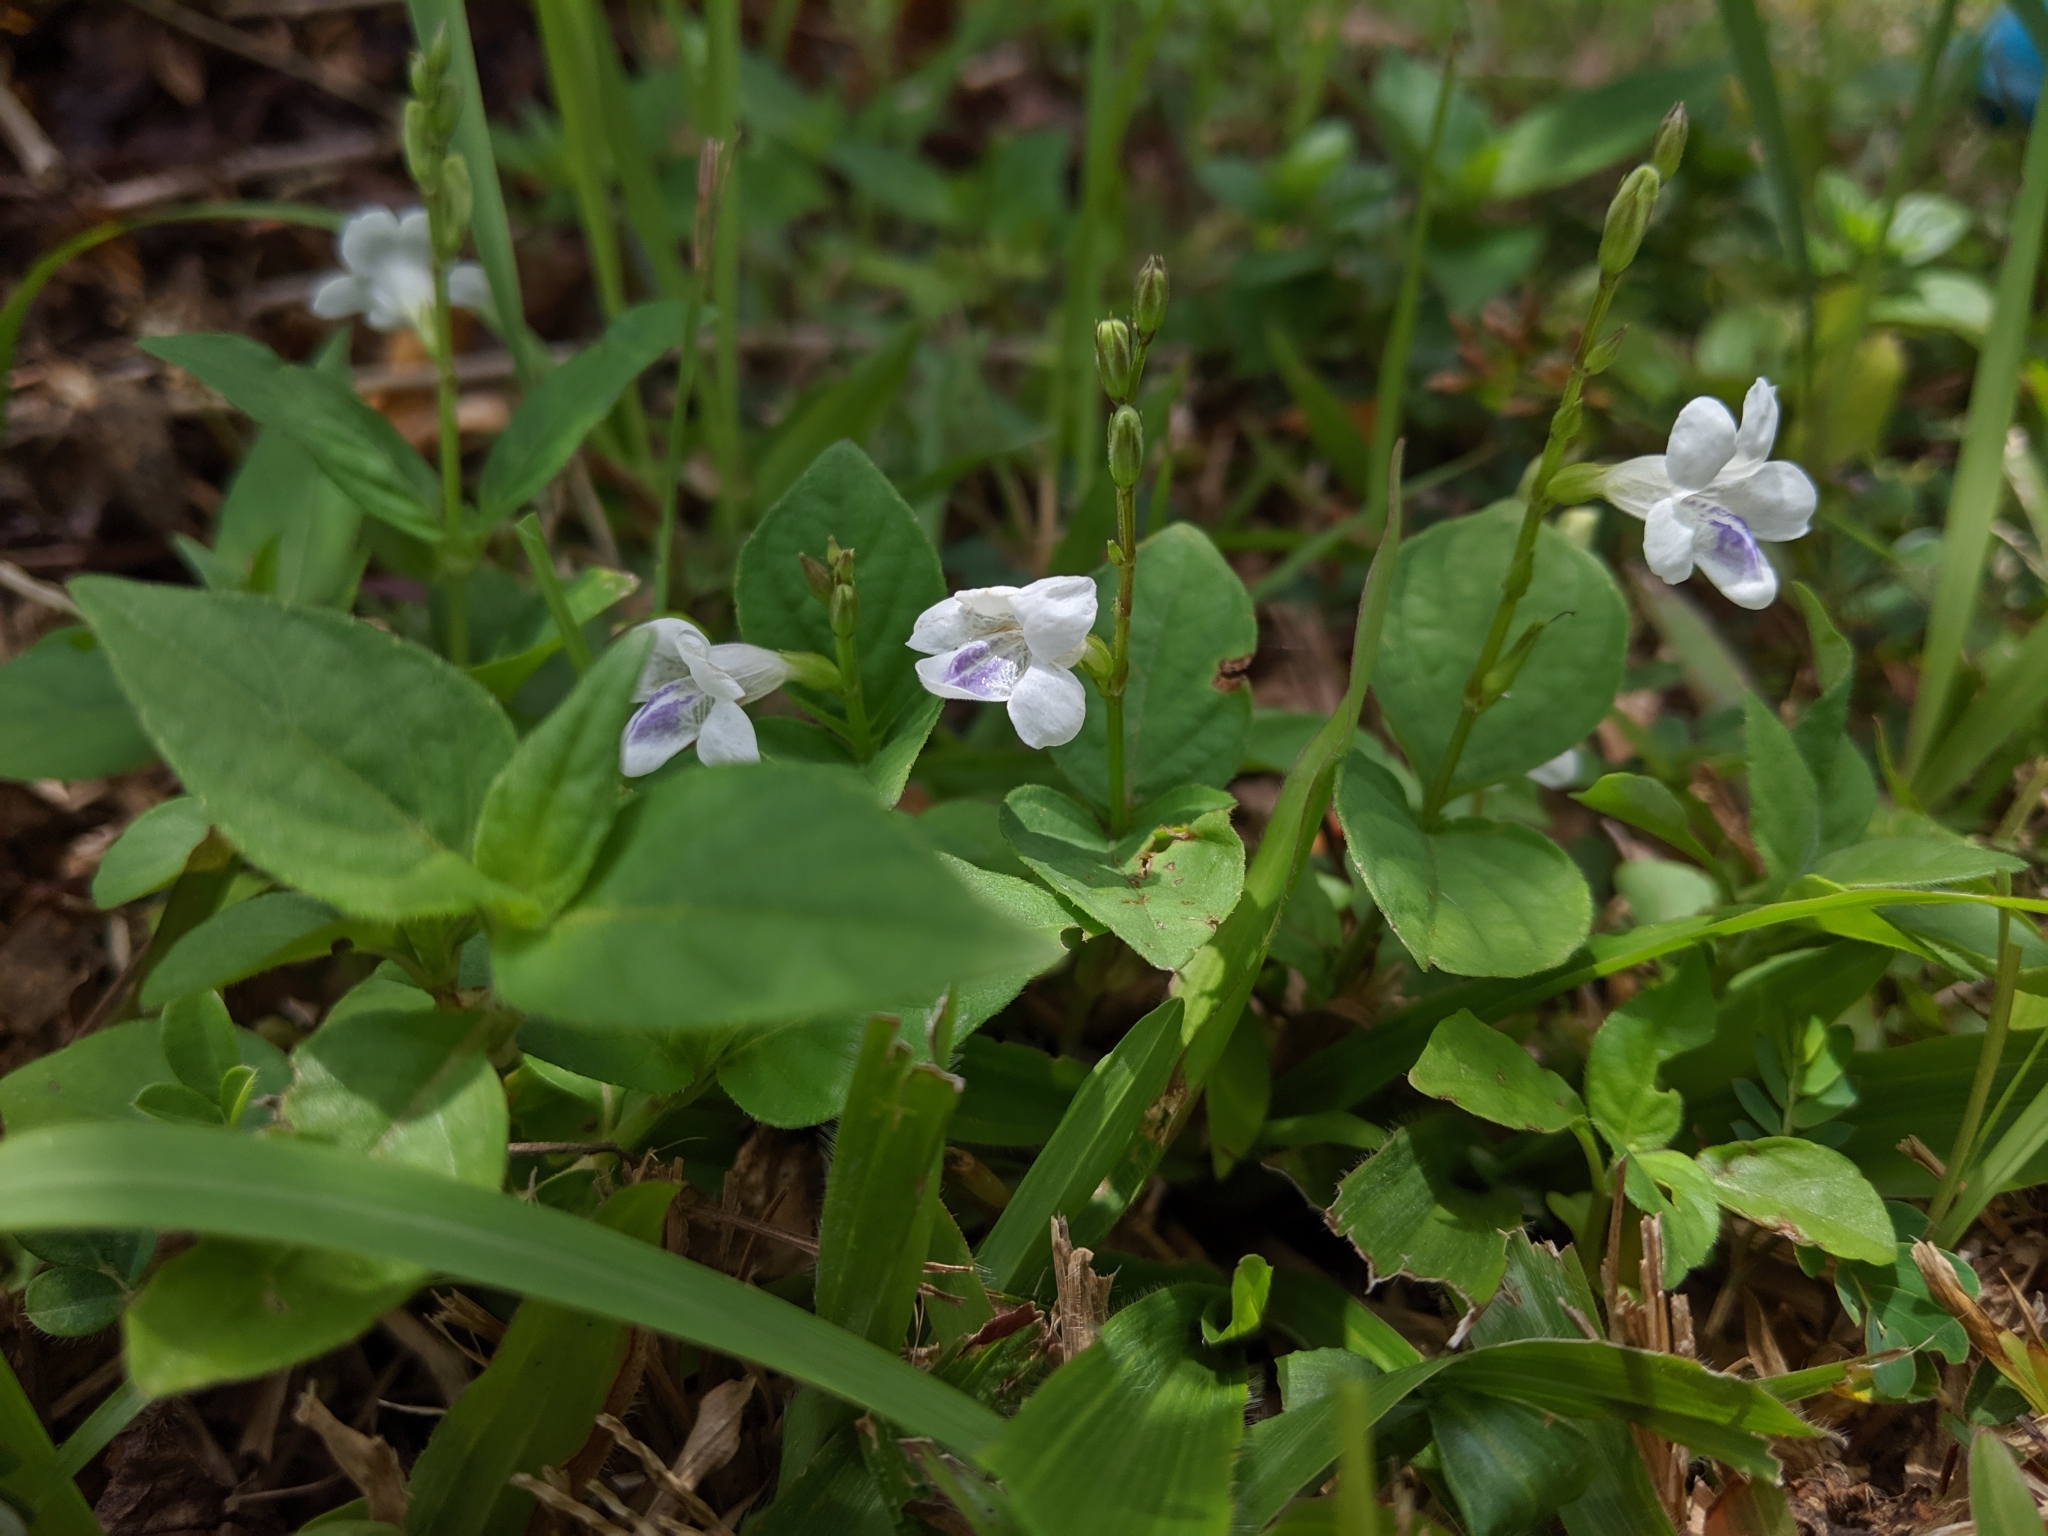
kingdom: Plantae
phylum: Tracheophyta
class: Magnoliopsida
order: Lamiales
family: Acanthaceae
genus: Asystasia
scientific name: Asystasia intrusa
